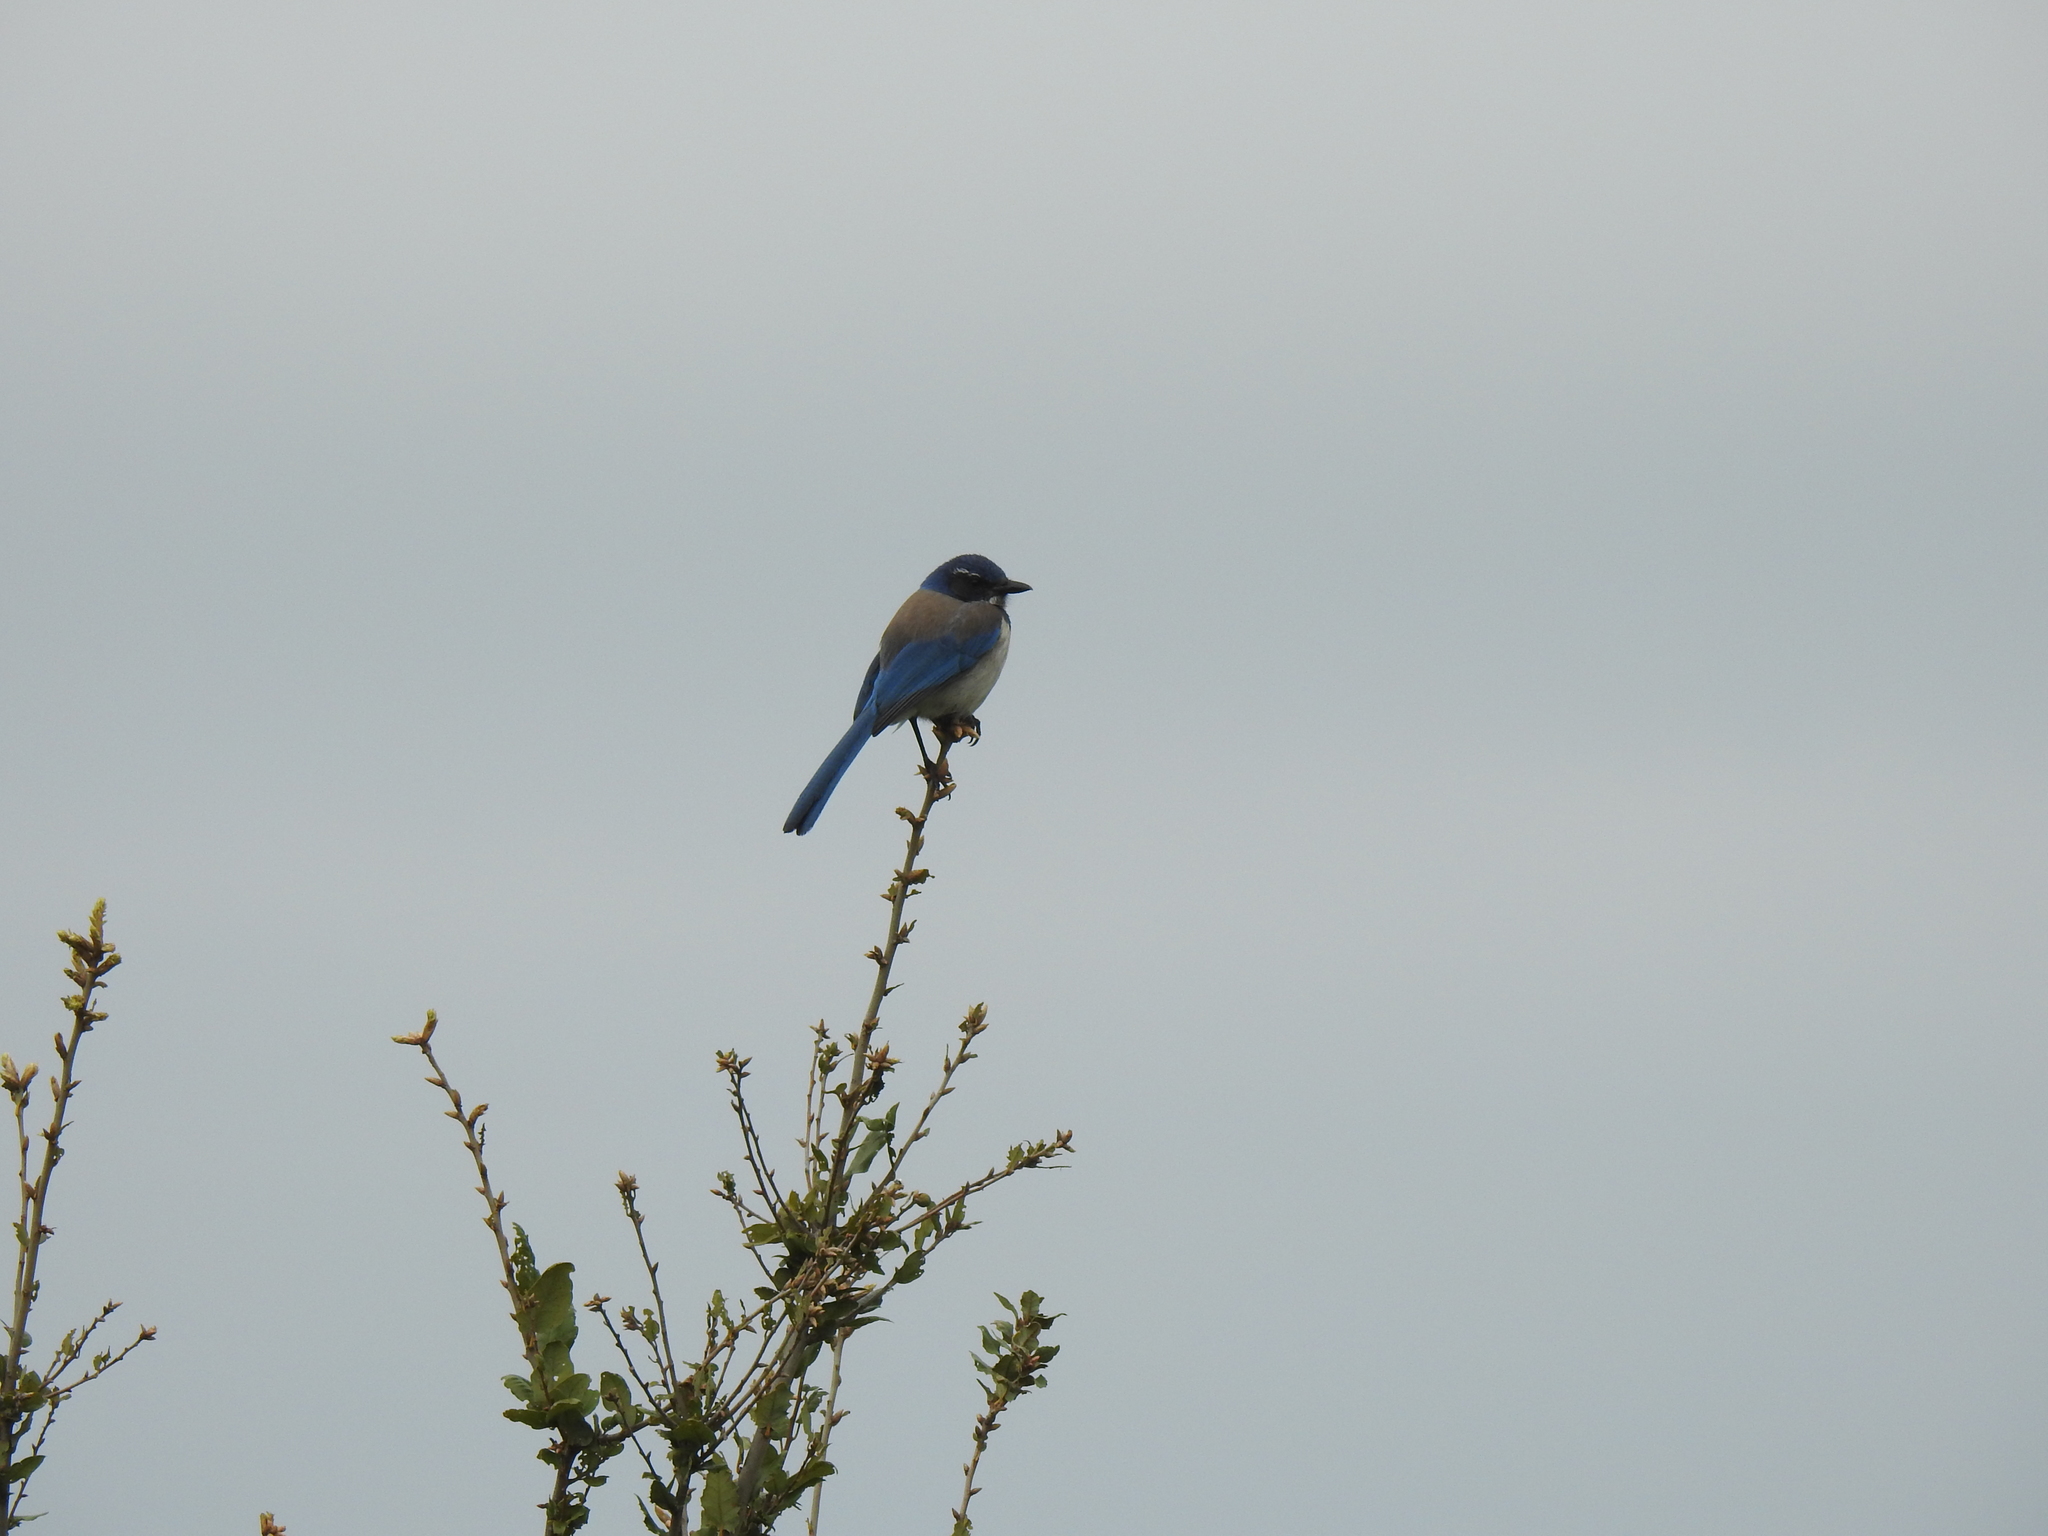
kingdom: Animalia
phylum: Chordata
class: Aves
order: Passeriformes
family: Corvidae
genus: Aphelocoma
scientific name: Aphelocoma californica
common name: California scrub-jay
